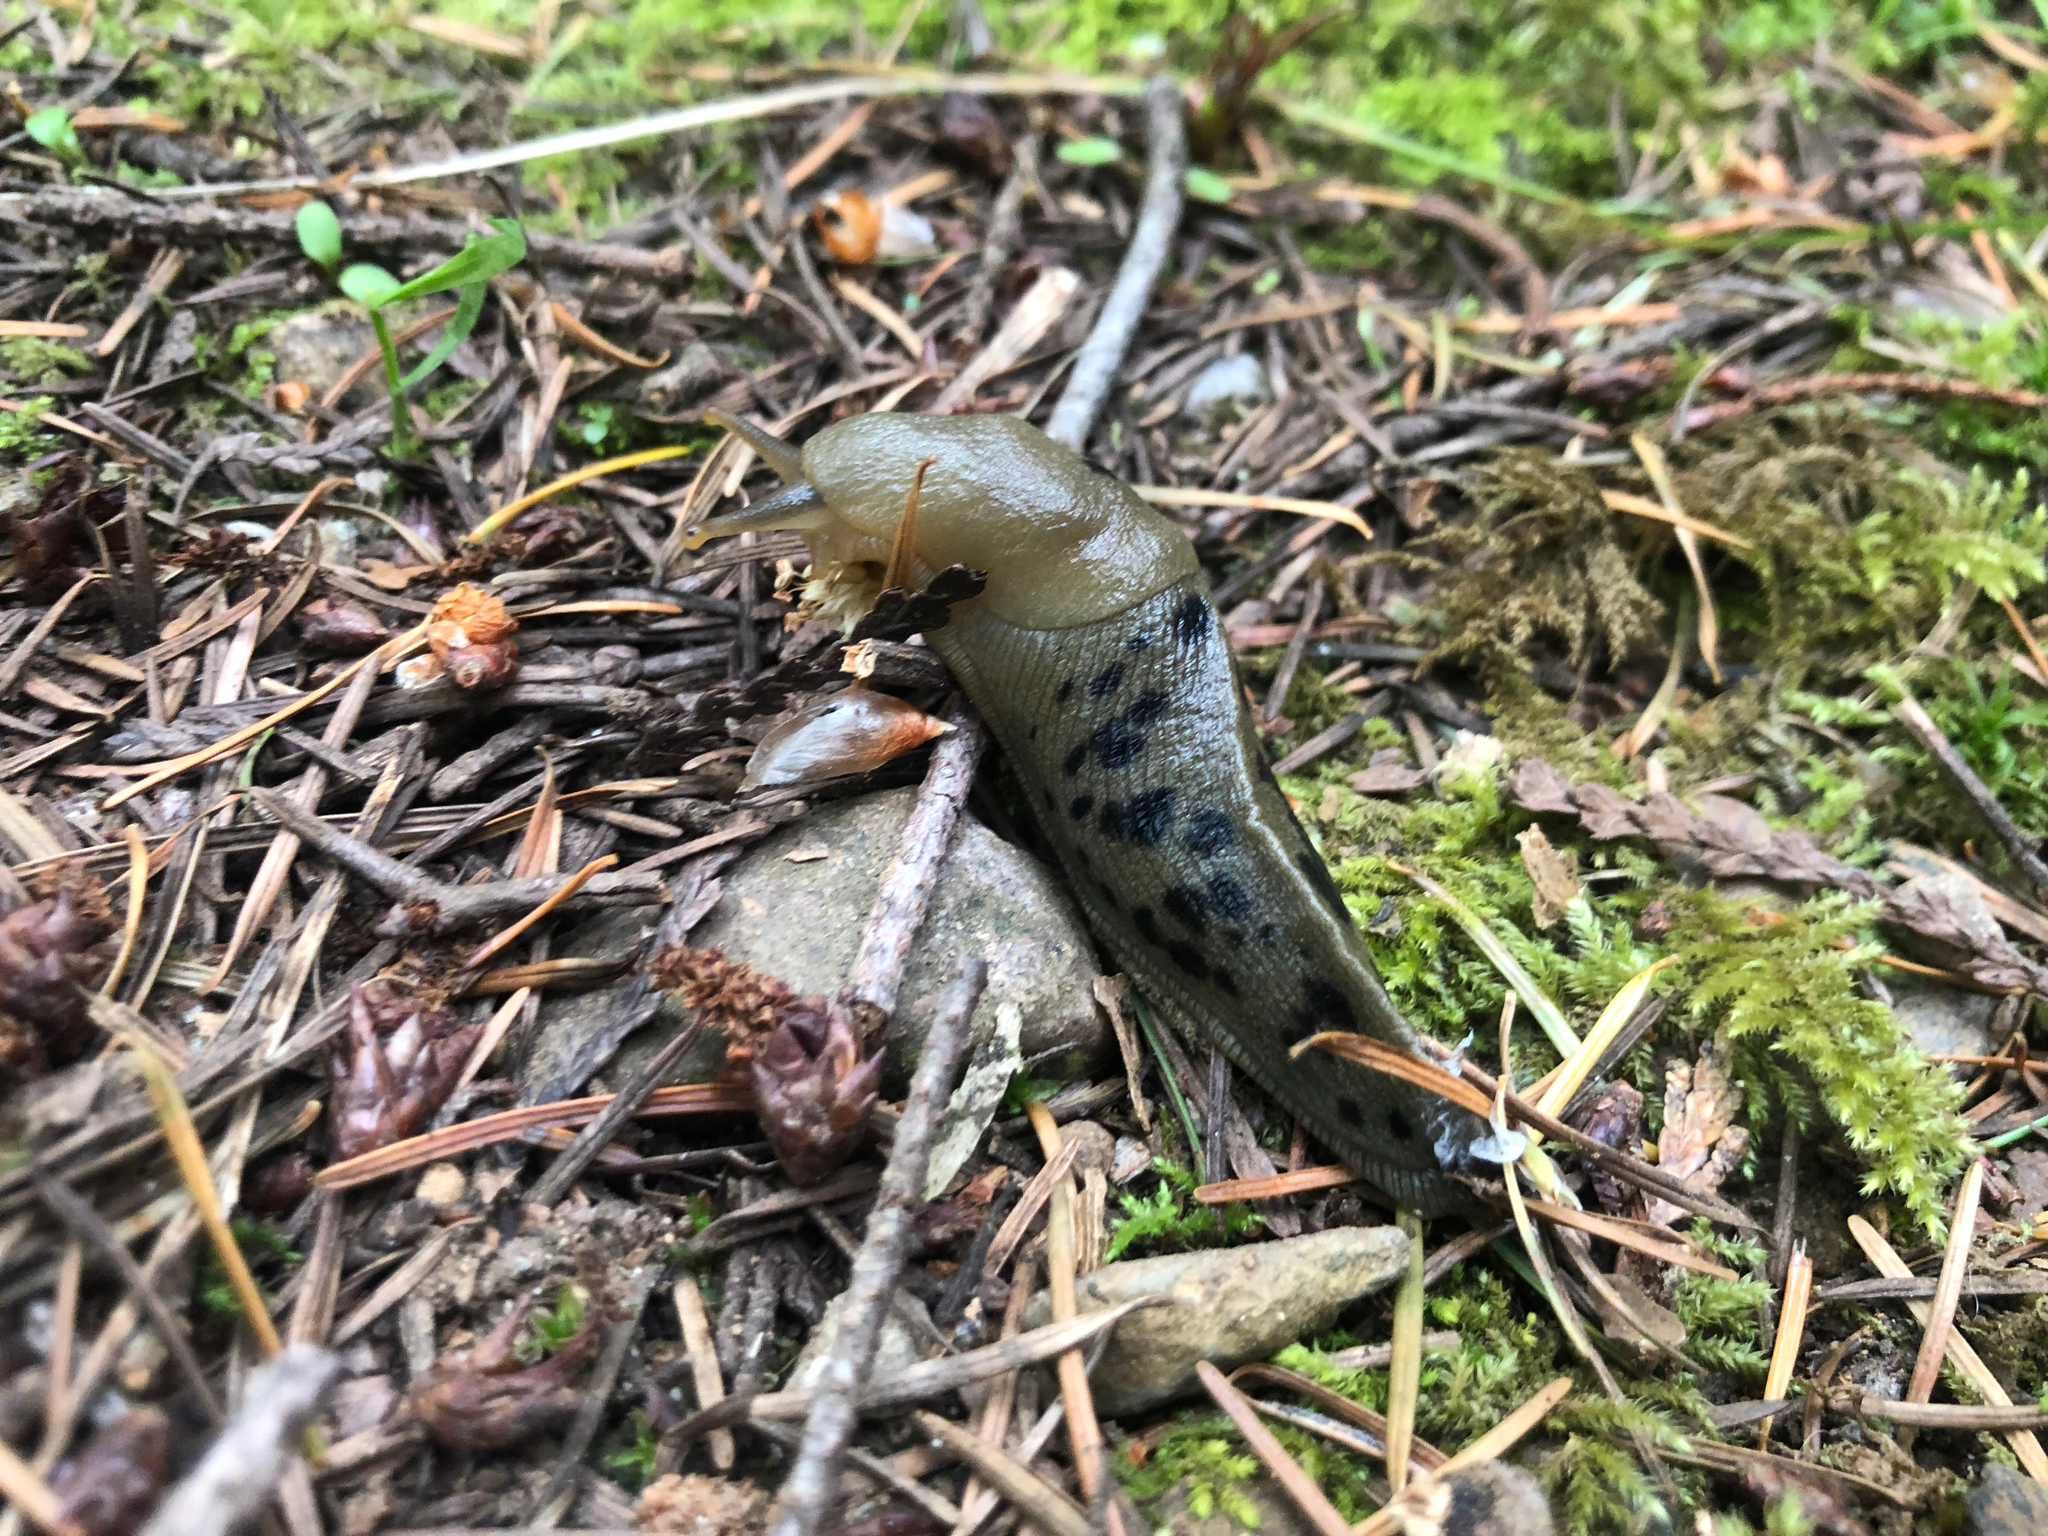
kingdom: Animalia
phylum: Mollusca
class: Gastropoda
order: Stylommatophora
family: Ariolimacidae
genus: Ariolimax
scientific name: Ariolimax columbianus
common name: Pacific banana slug
